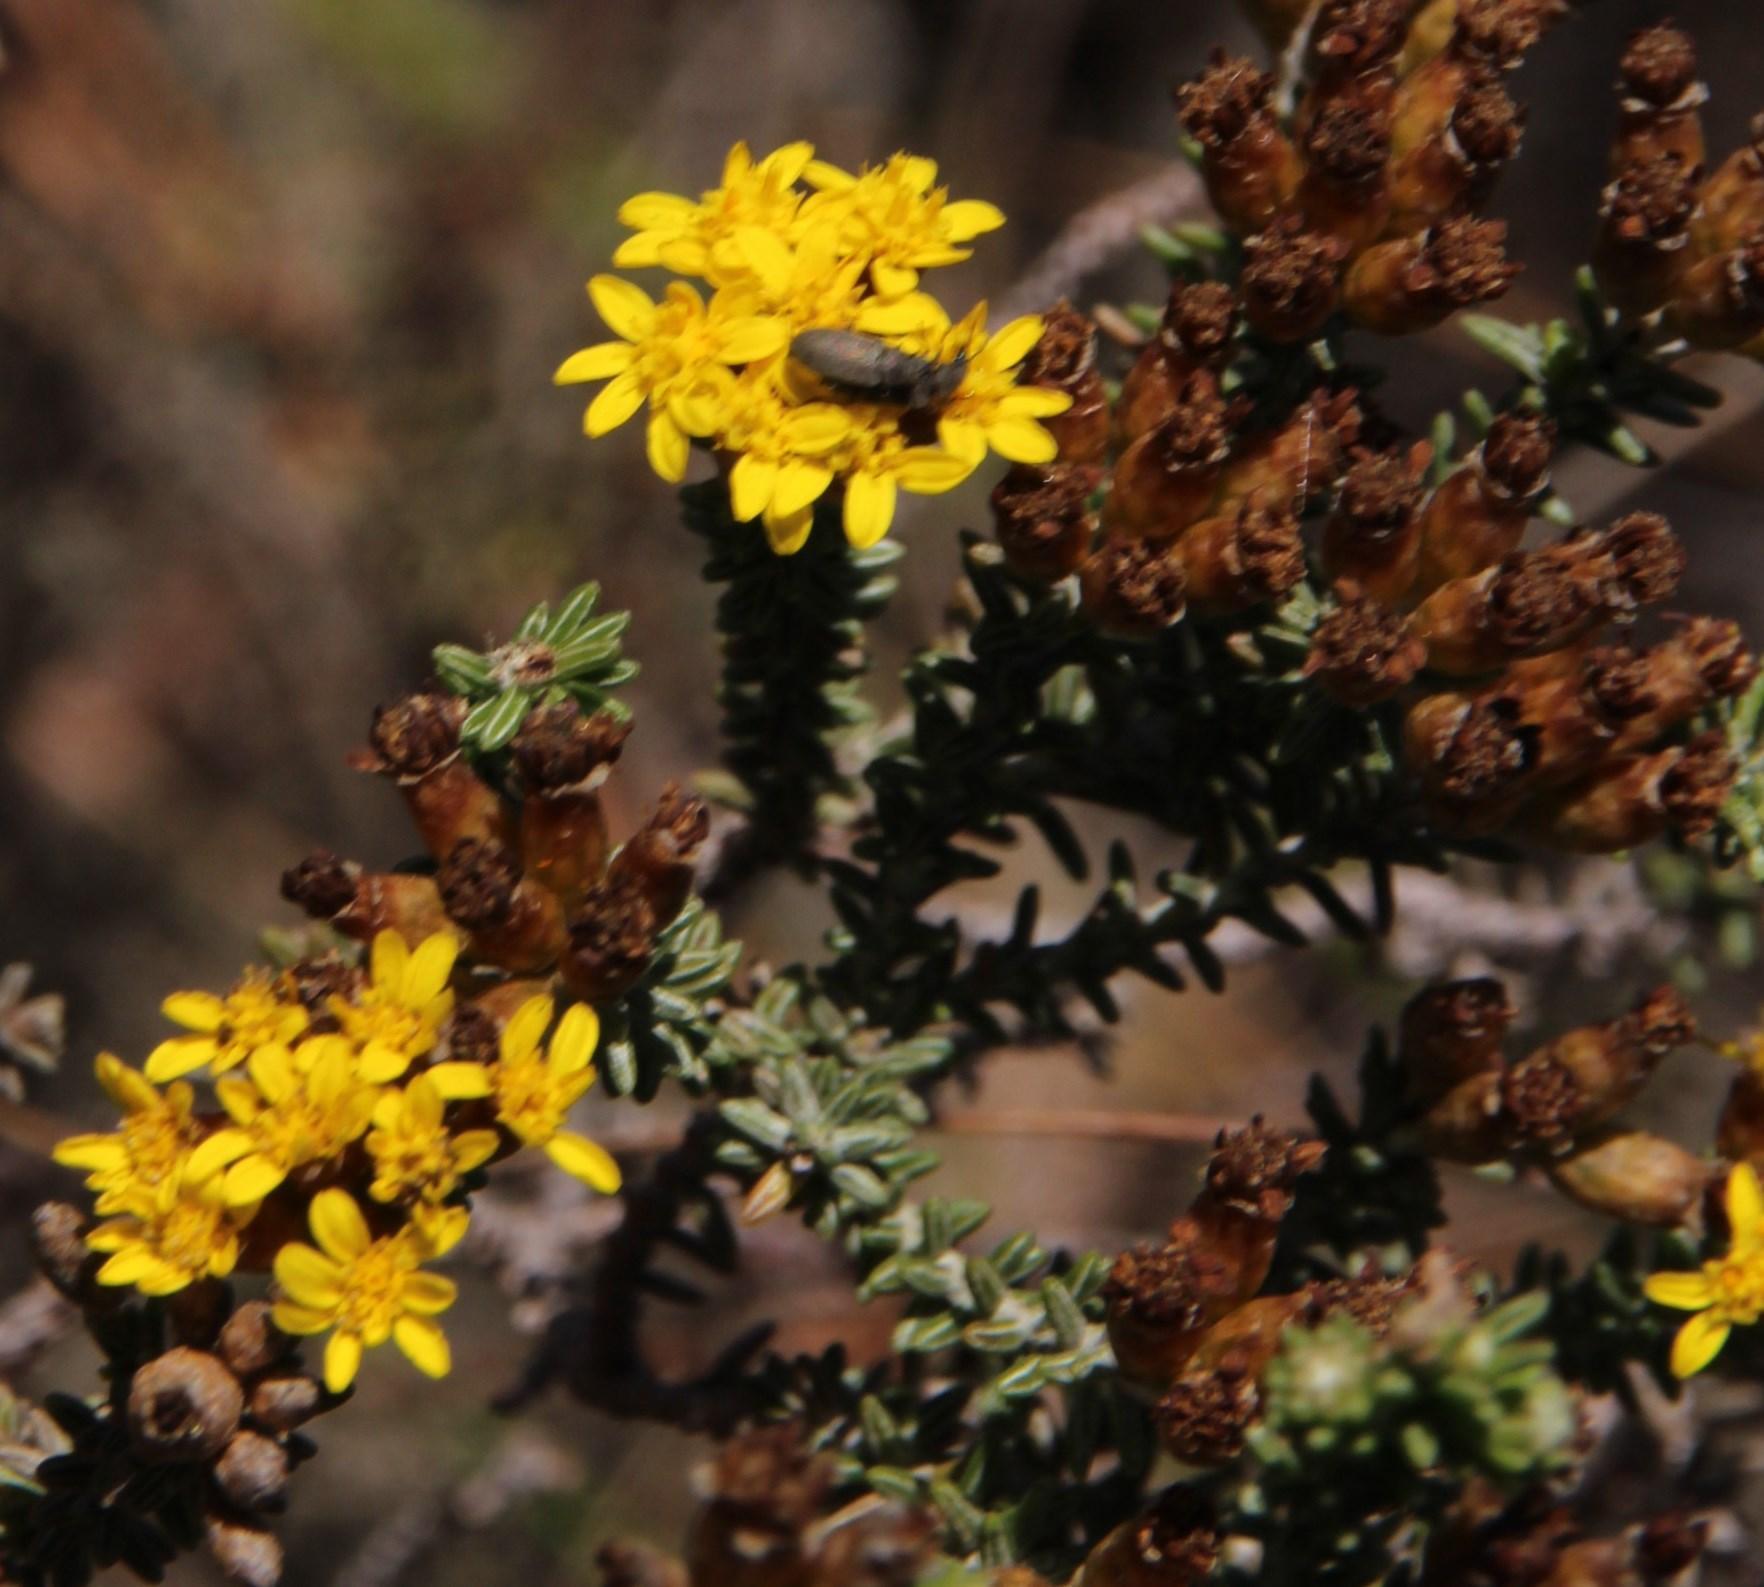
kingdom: Plantae
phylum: Tracheophyta
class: Magnoliopsida
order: Asterales
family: Asteraceae
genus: Oedera
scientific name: Oedera garnotii
